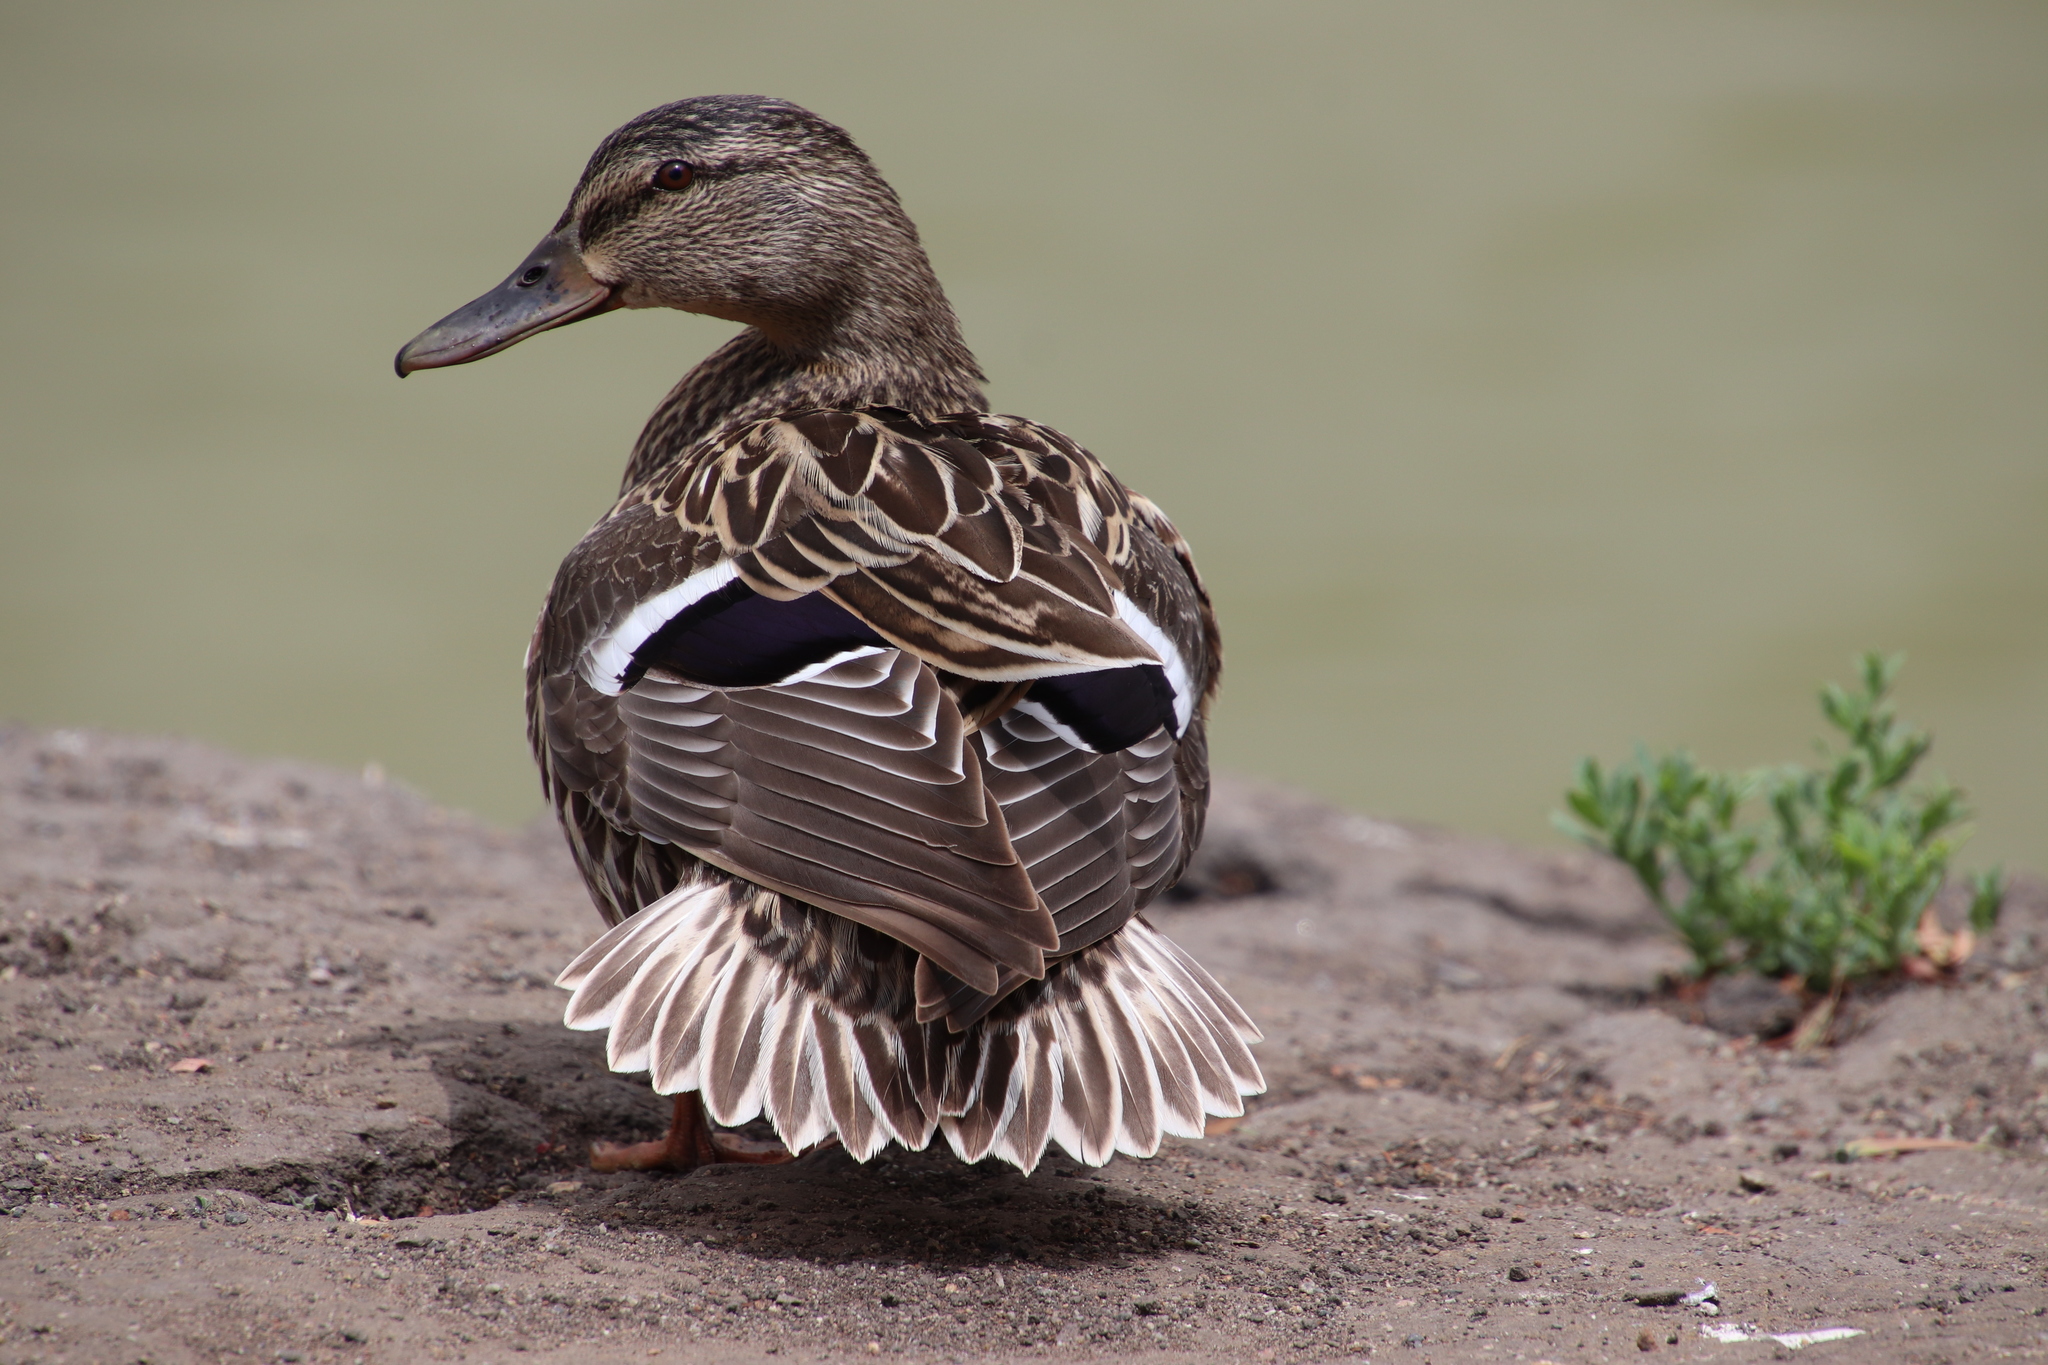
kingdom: Animalia
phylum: Chordata
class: Aves
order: Anseriformes
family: Anatidae
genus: Anas
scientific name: Anas platyrhynchos
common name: Mallard
